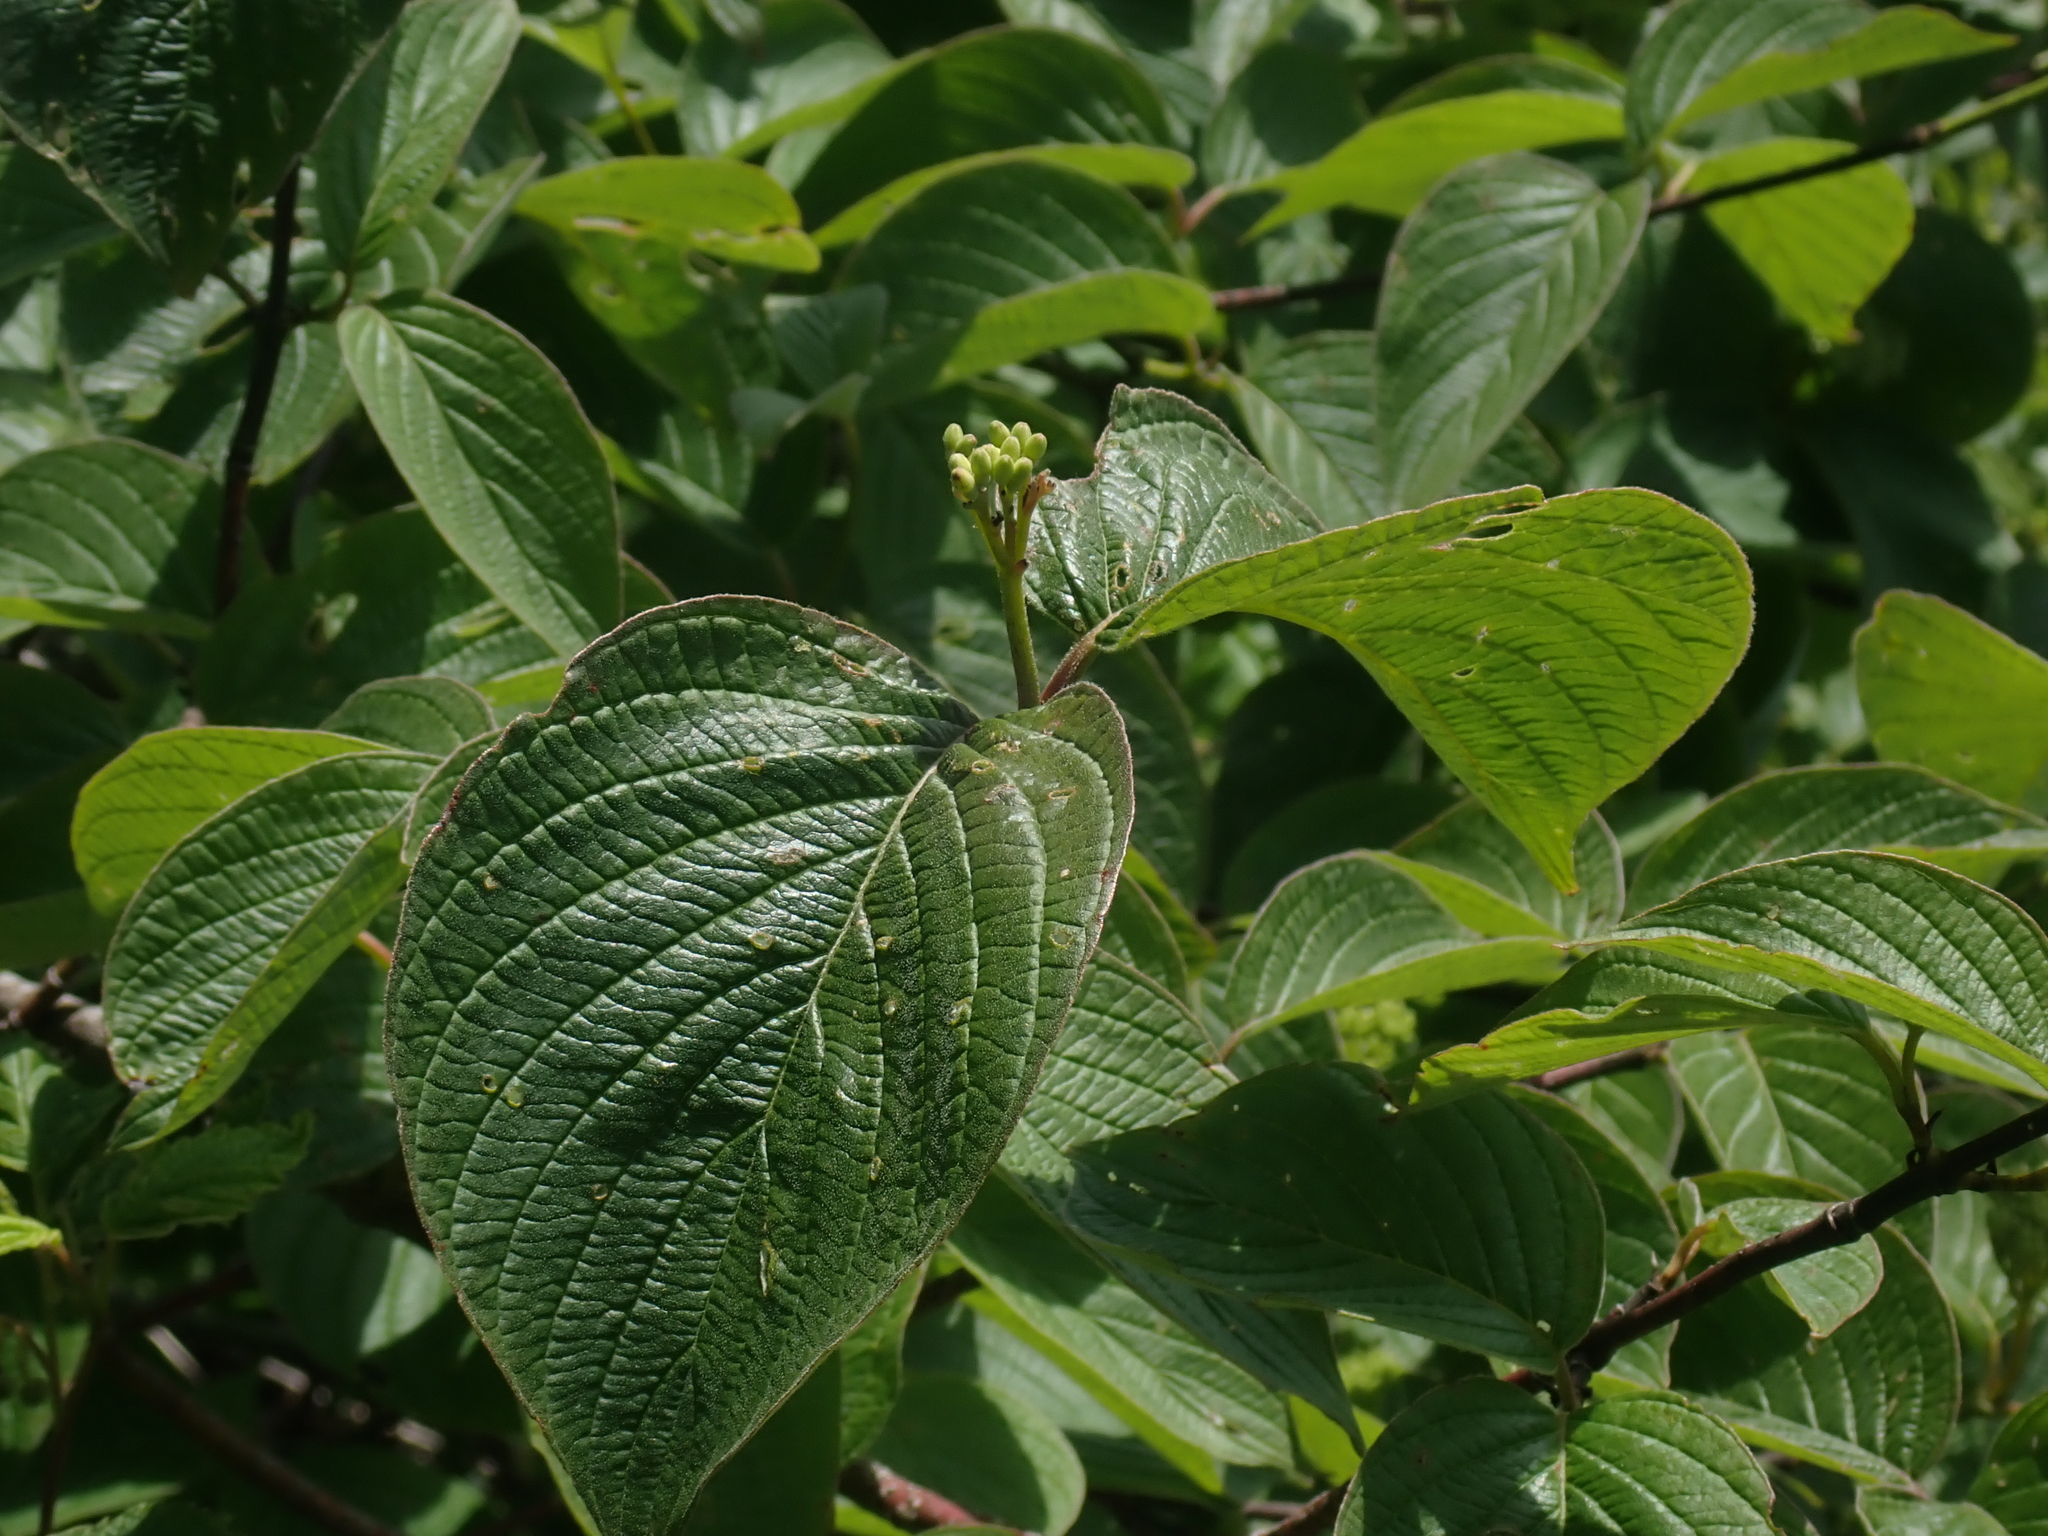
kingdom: Plantae
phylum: Tracheophyta
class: Magnoliopsida
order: Cornales
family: Cornaceae
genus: Cornus
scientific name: Cornus rugosa
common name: Round-leaf dogwood
